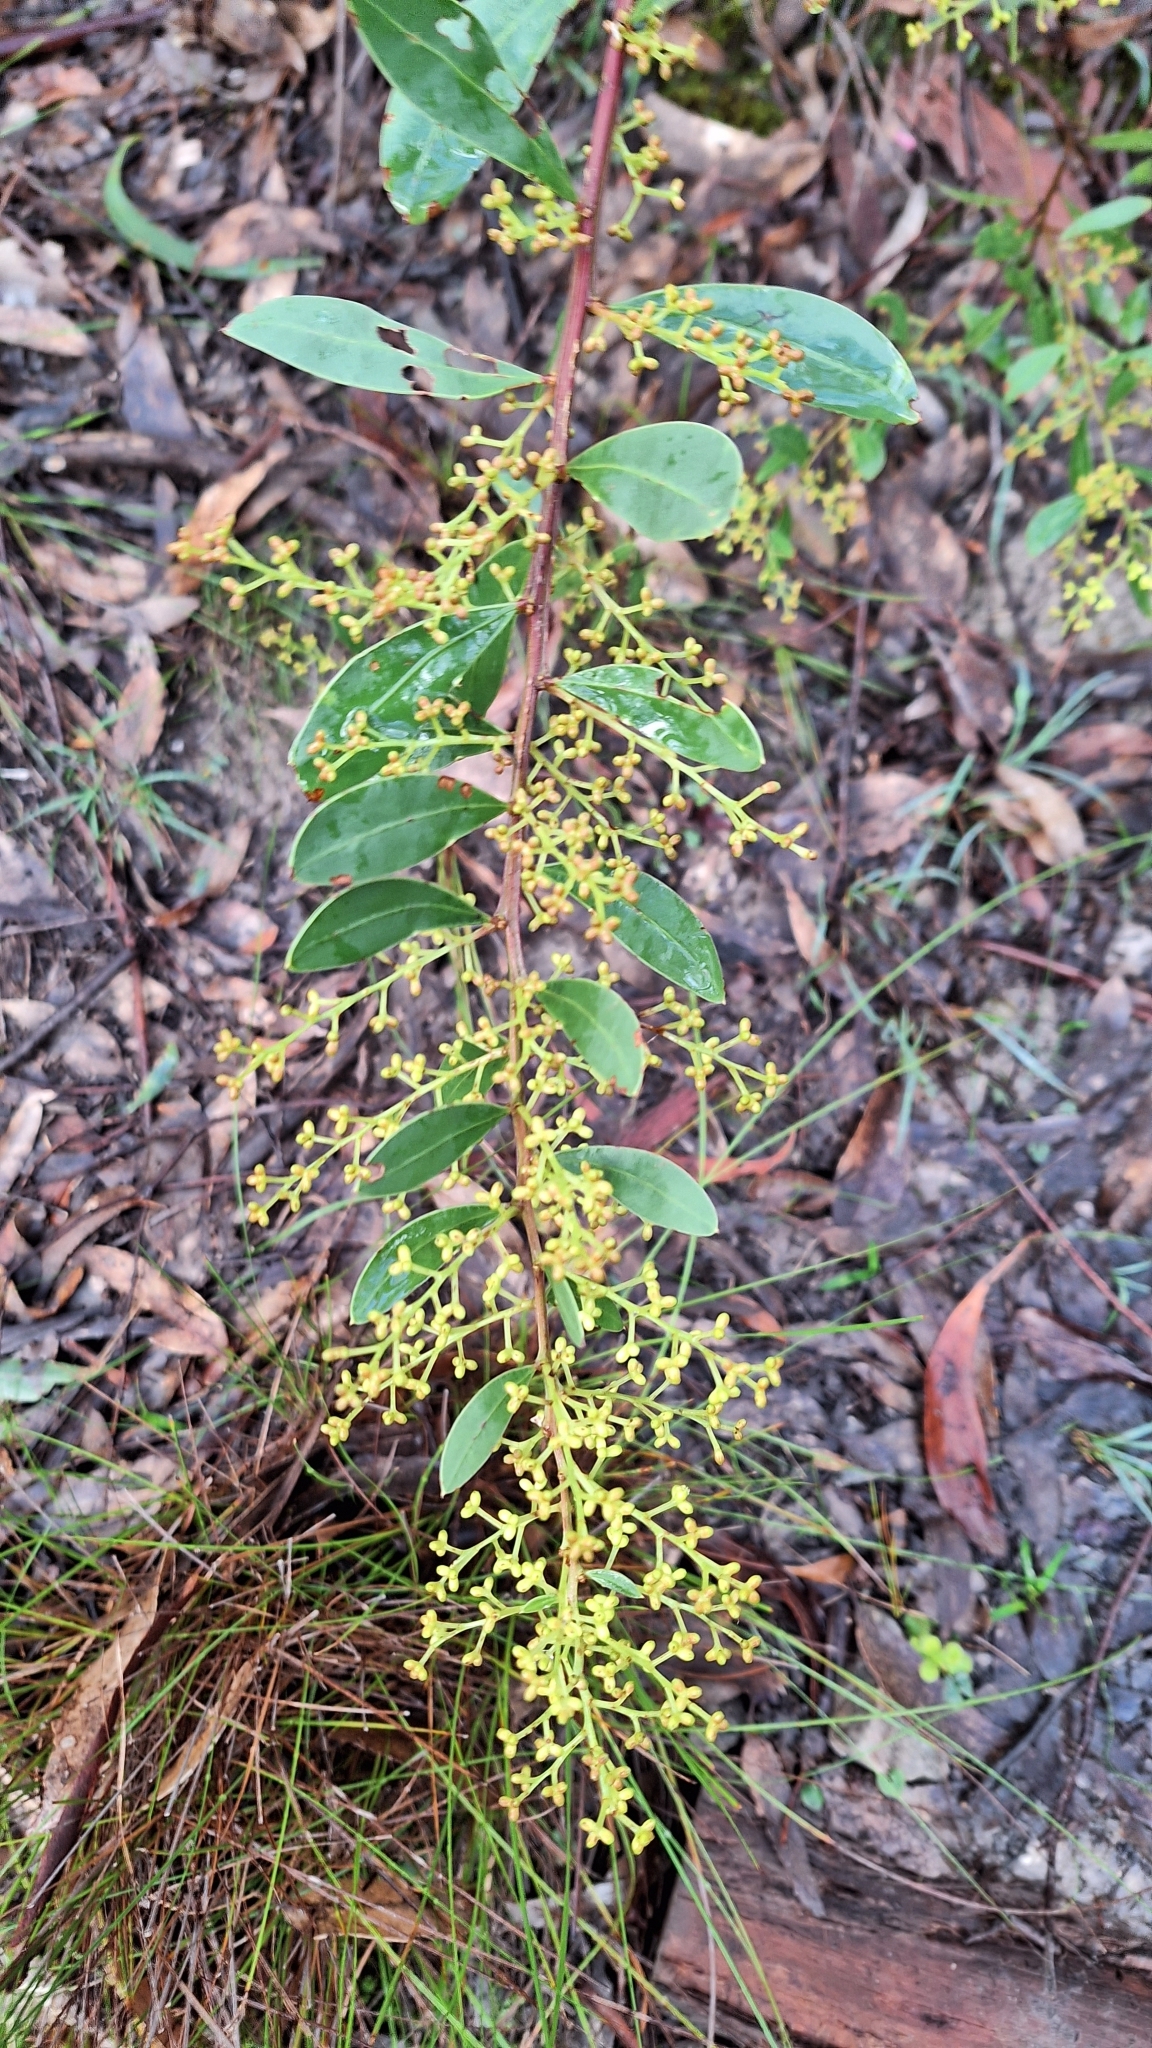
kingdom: Plantae
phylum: Tracheophyta
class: Magnoliopsida
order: Fabales
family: Fabaceae
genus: Acacia
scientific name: Acacia myrtifolia
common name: Myrtle wattle
